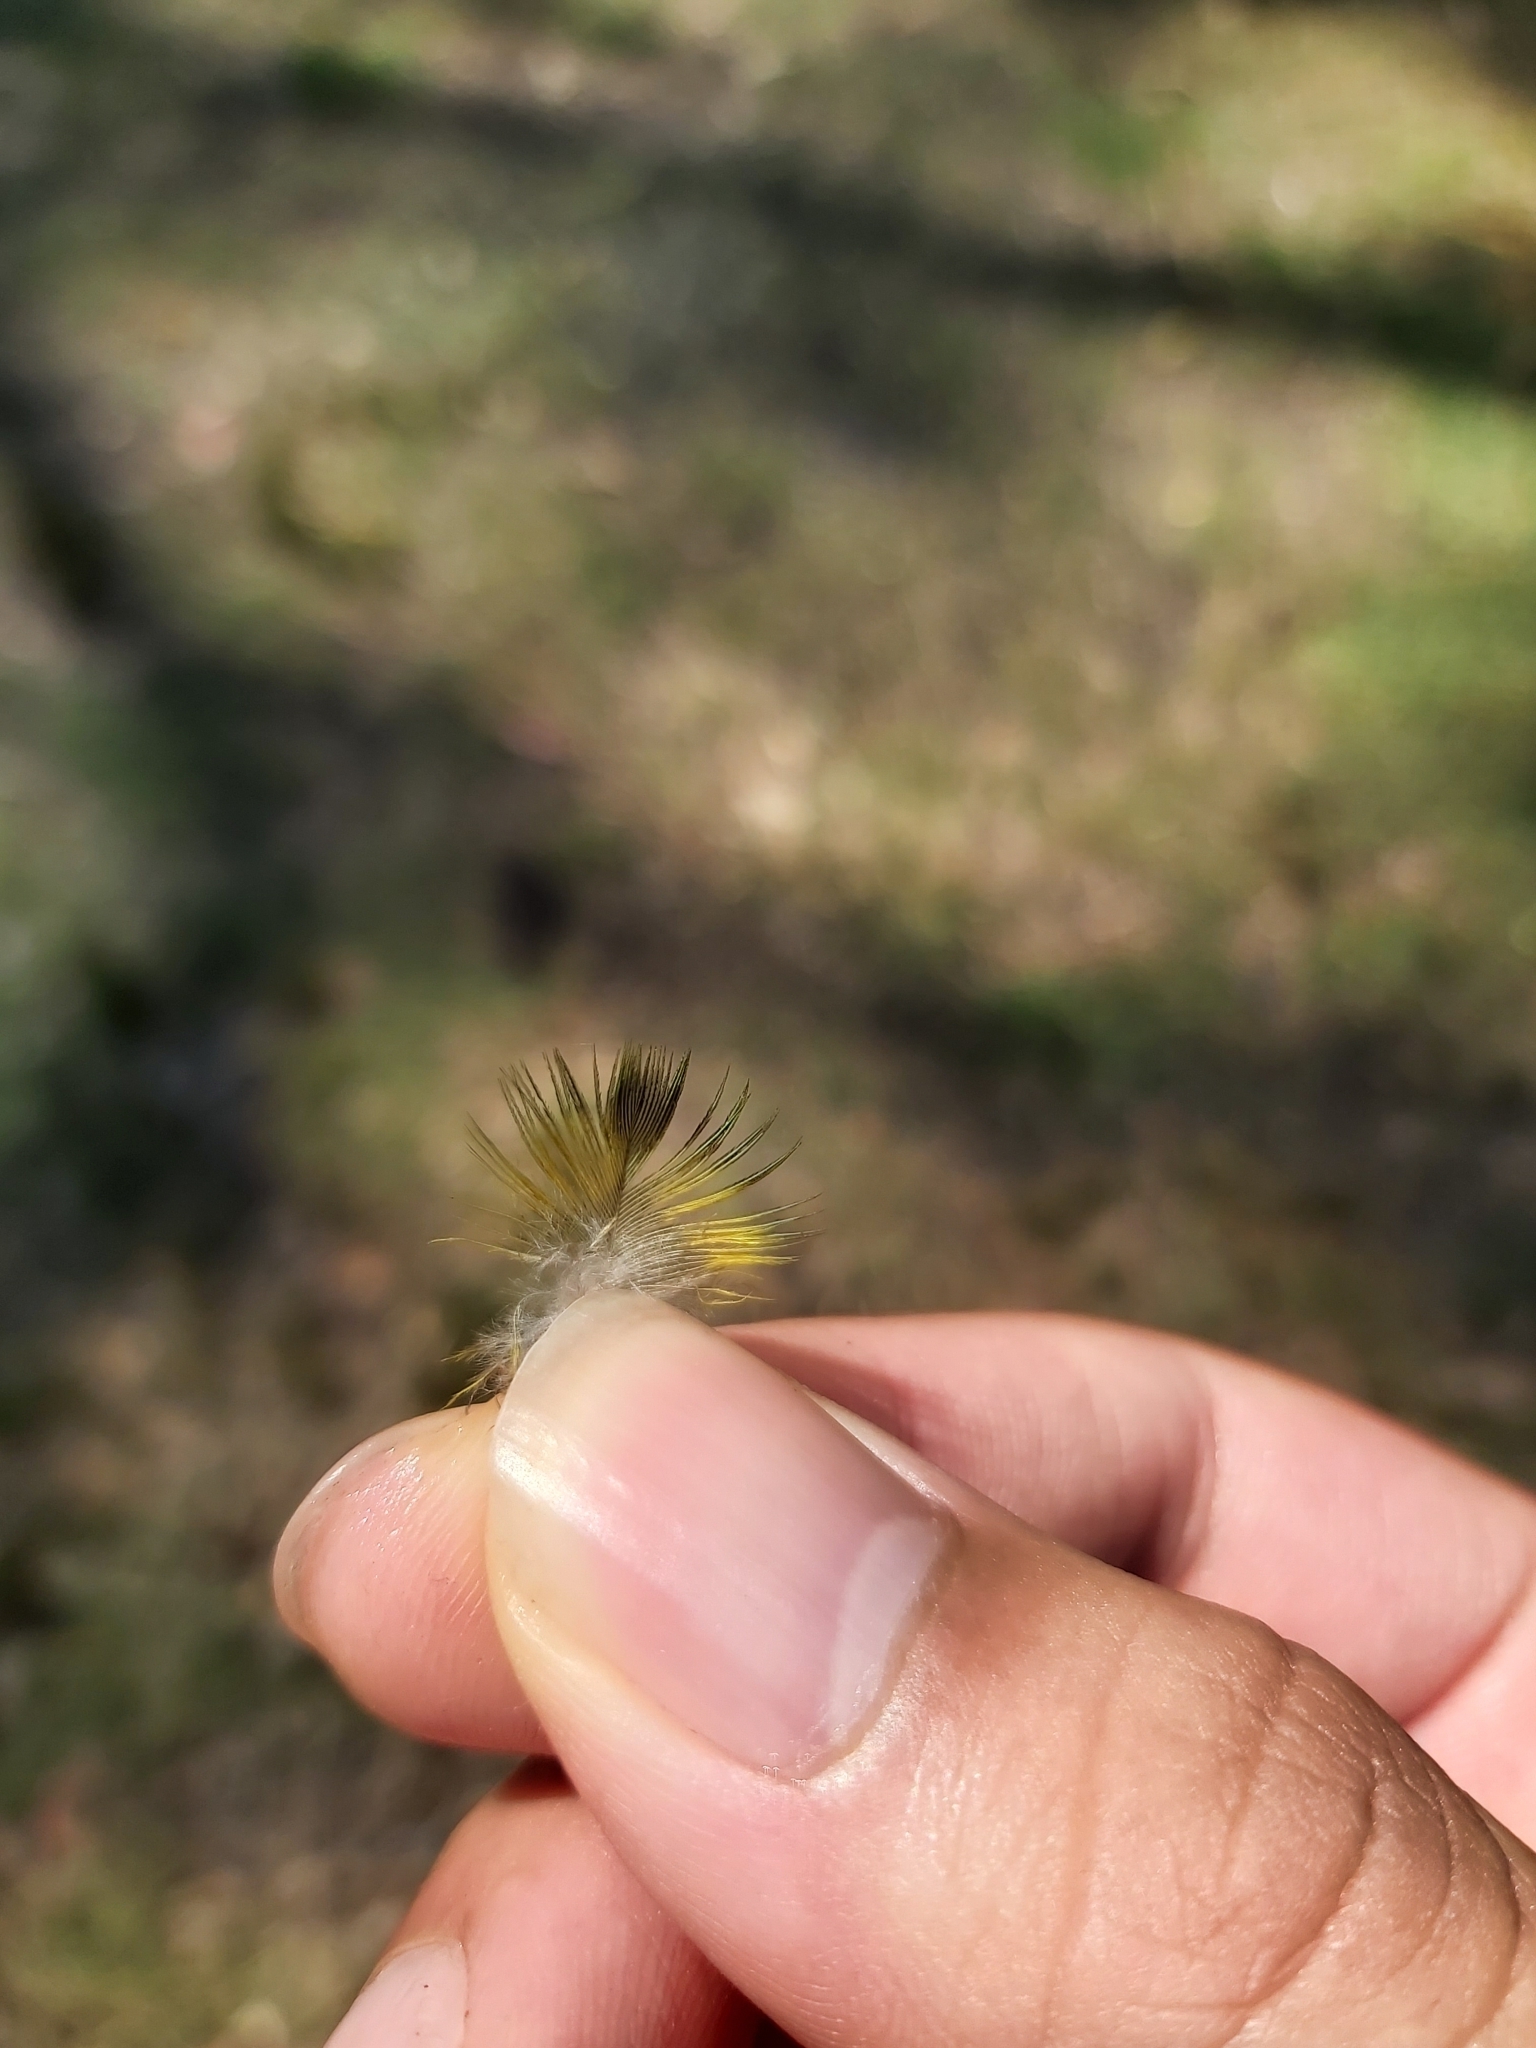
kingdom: Animalia
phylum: Chordata
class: Aves
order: Psittaciformes
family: Psittacidae
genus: Trichoglossus
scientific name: Trichoglossus haematodus
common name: Coconut lorikeet
